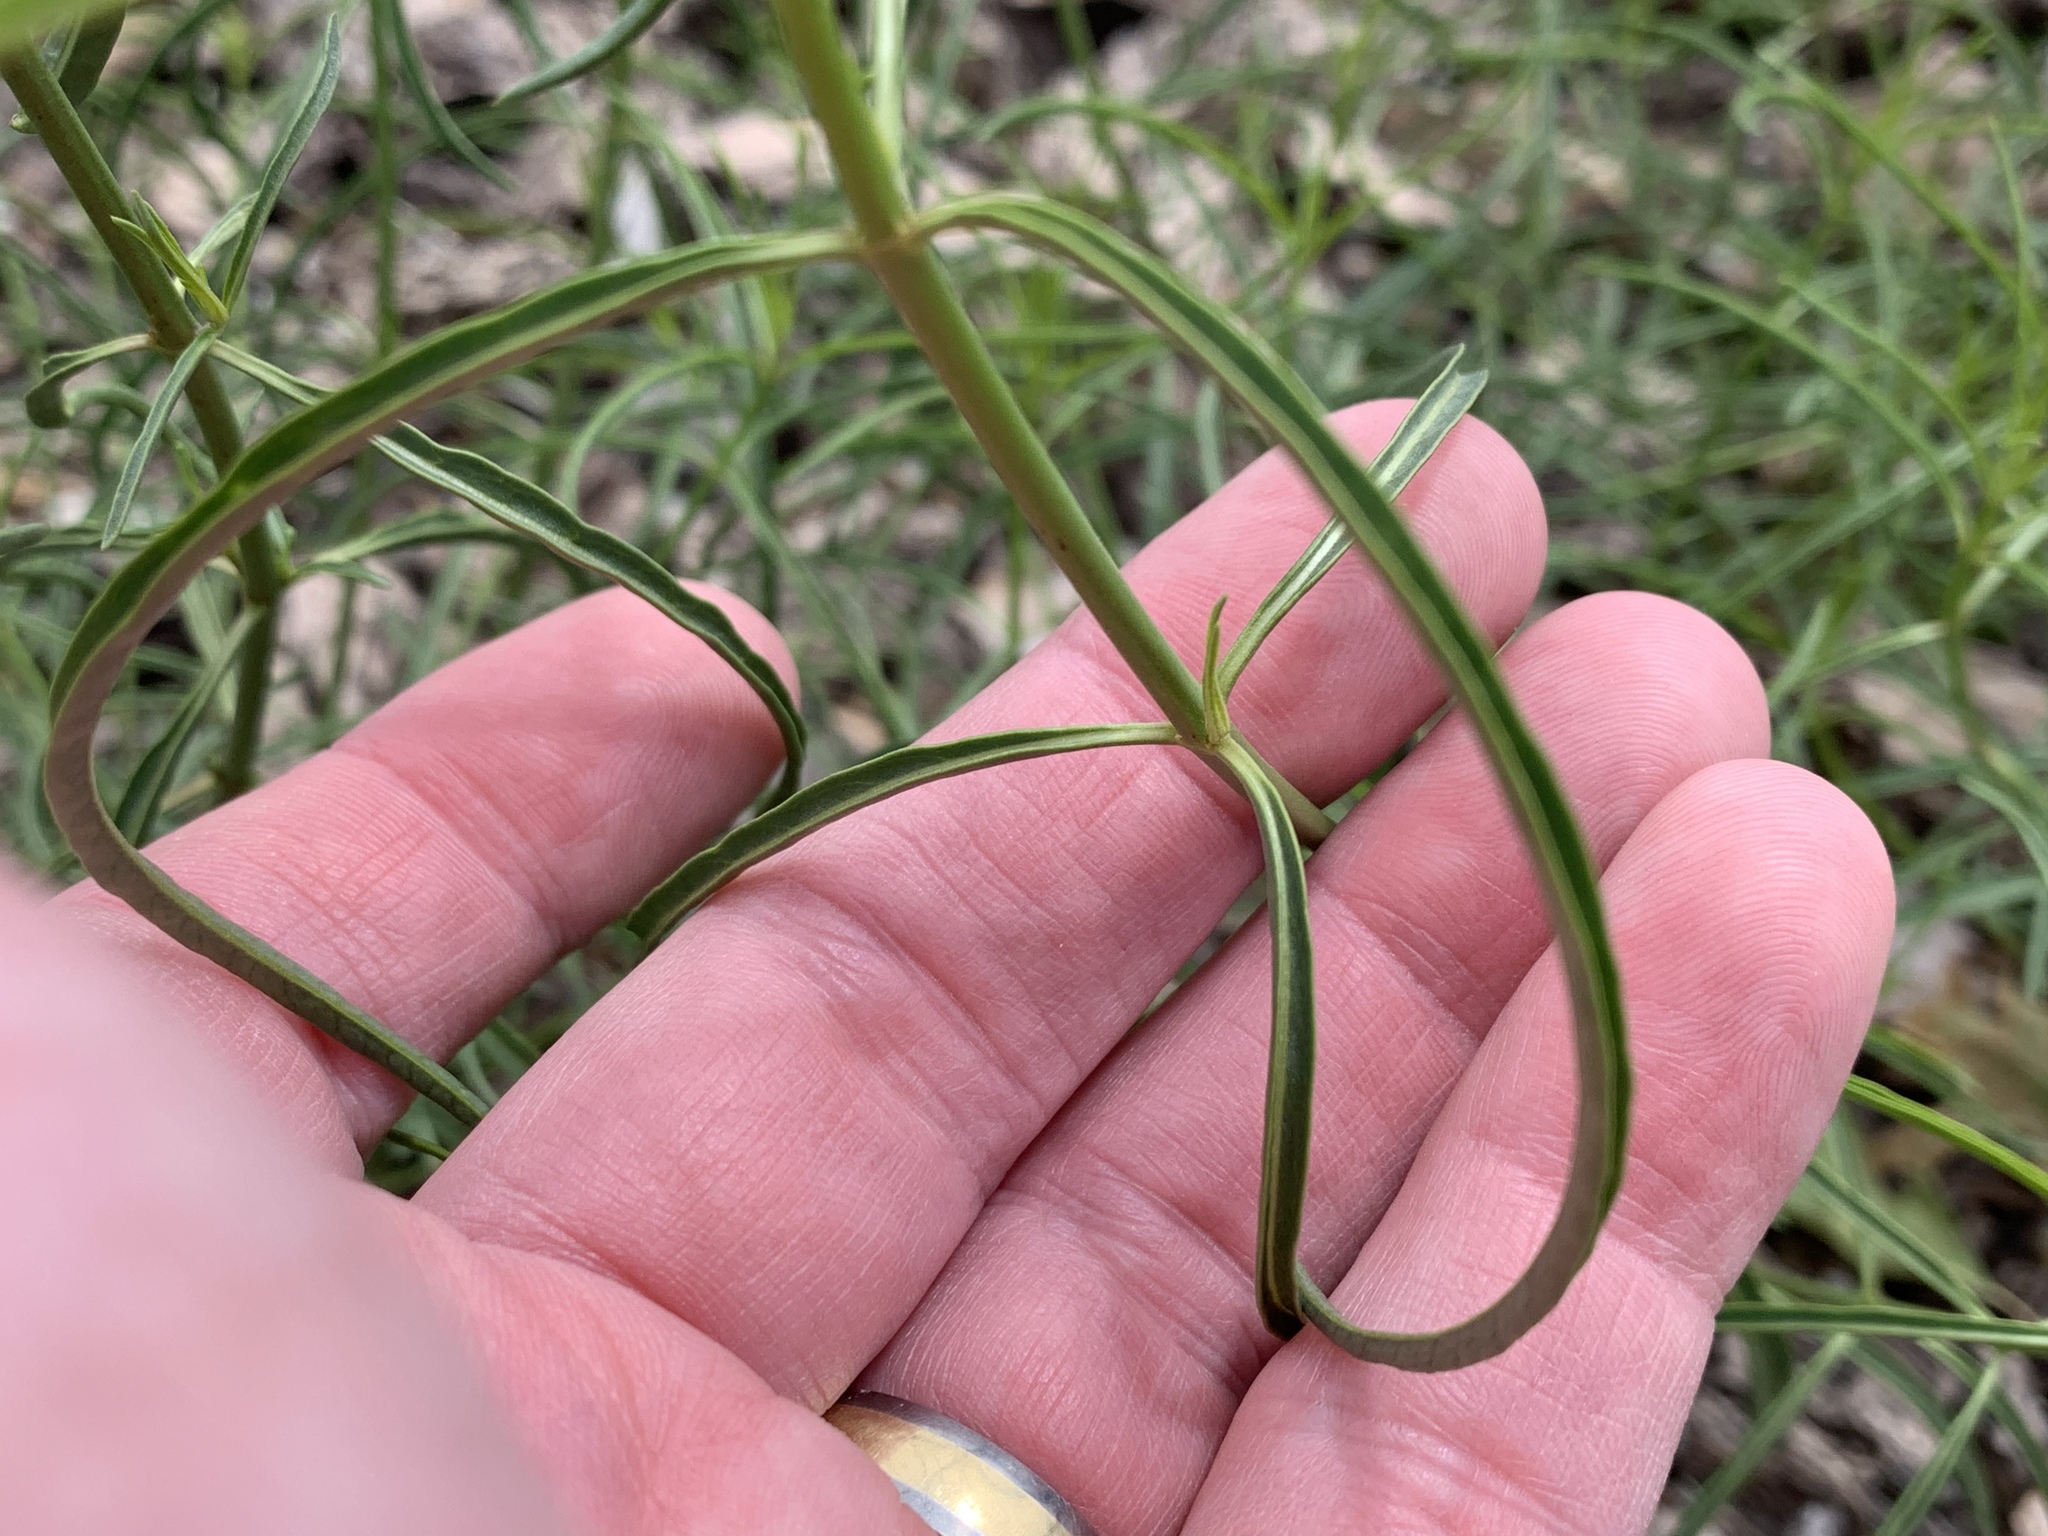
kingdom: Plantae
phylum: Tracheophyta
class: Magnoliopsida
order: Gentianales
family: Apocynaceae
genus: Asclepias
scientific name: Asclepias fascicularis
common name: Mexican milkweed
